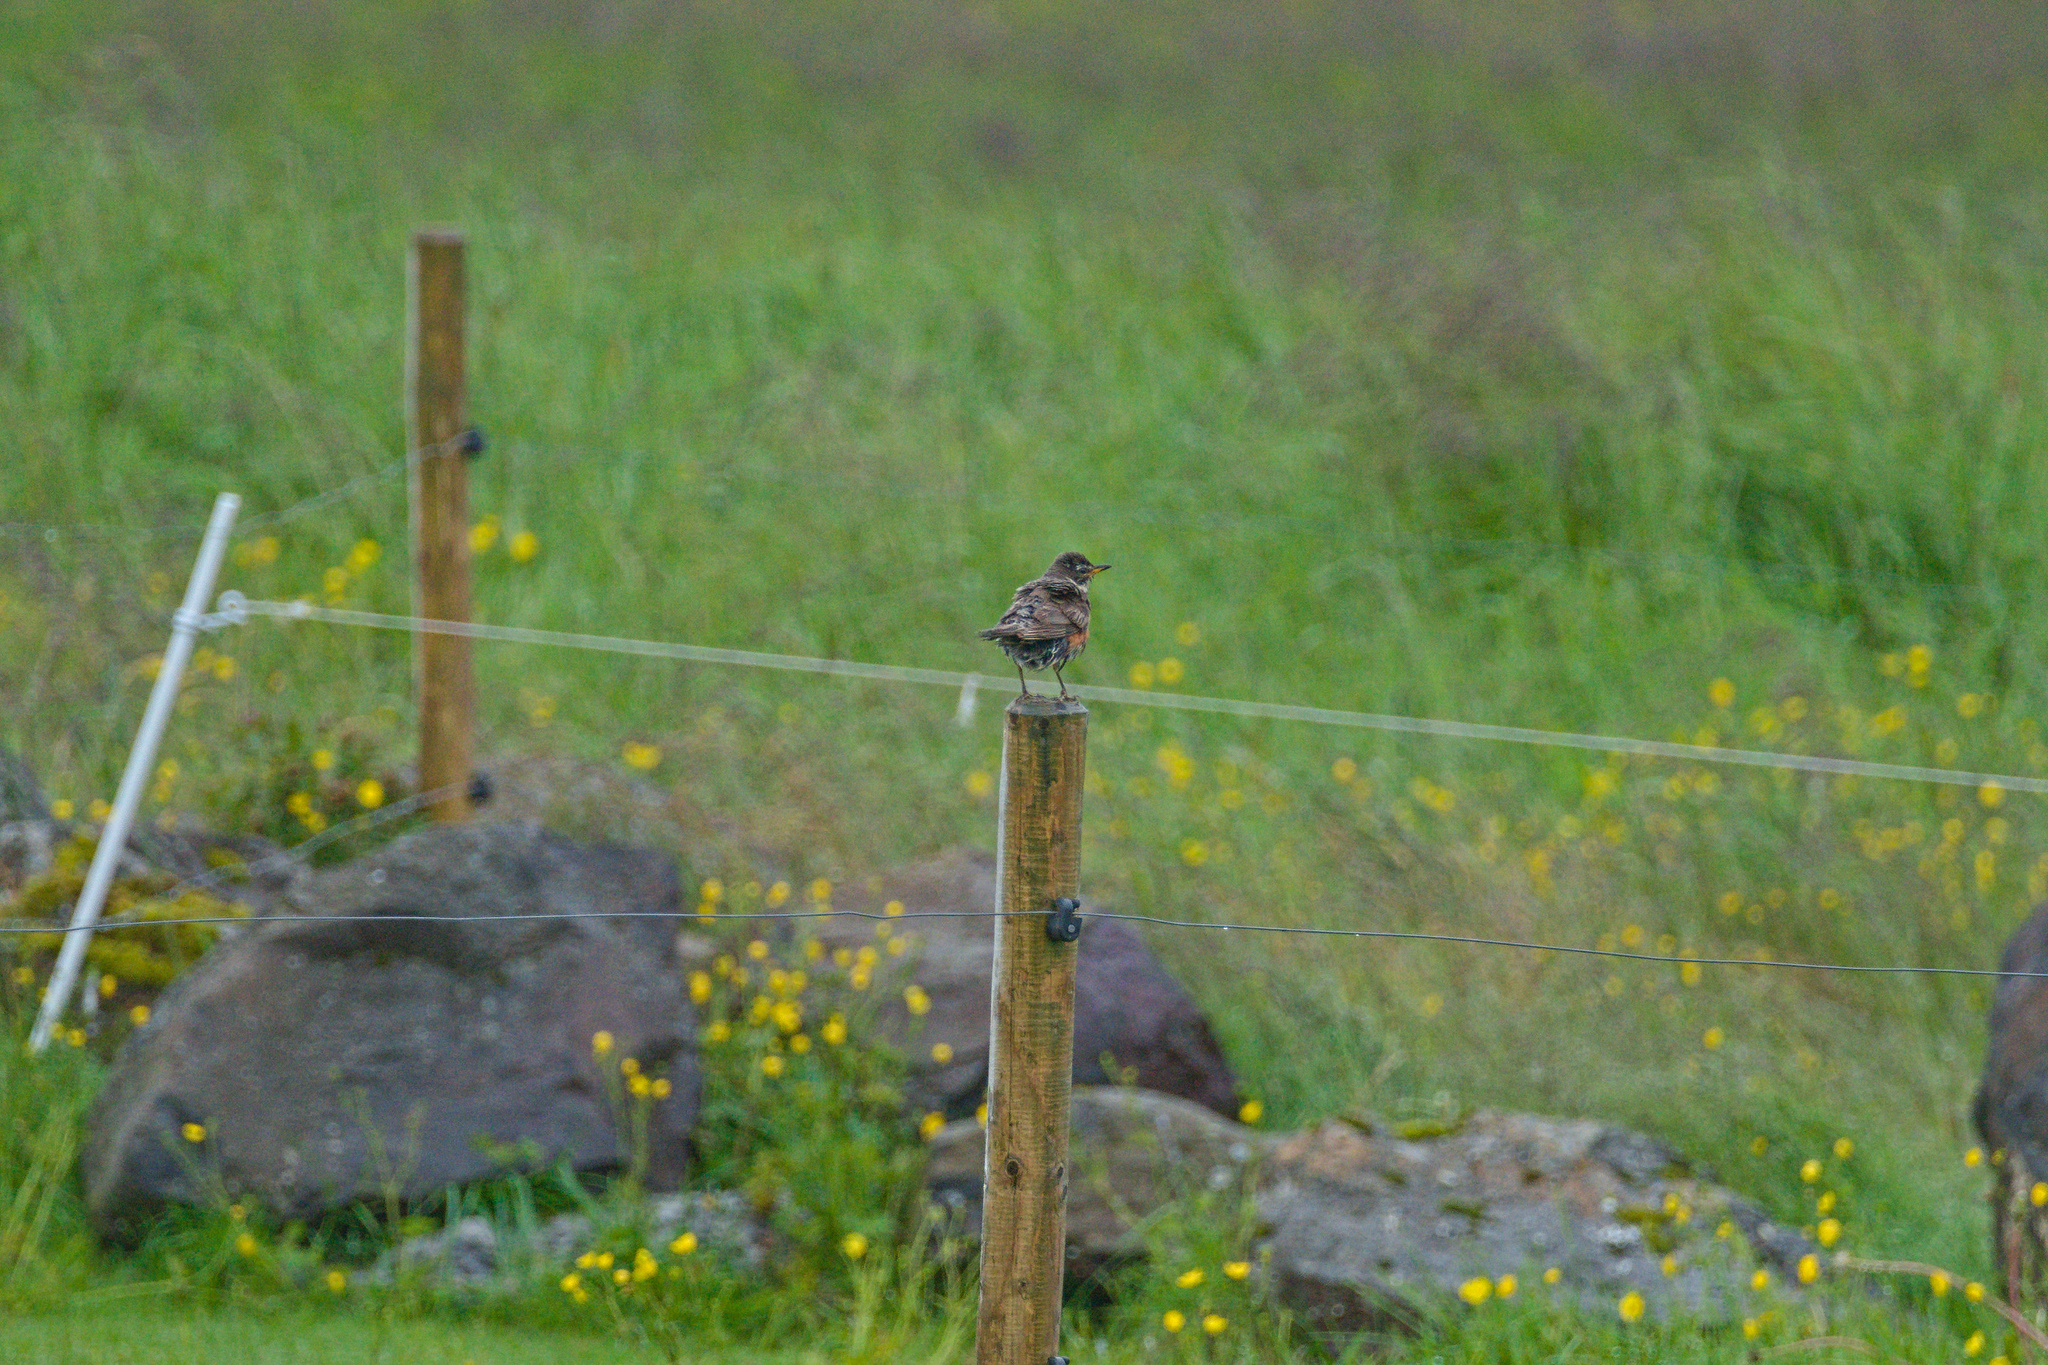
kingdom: Animalia
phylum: Chordata
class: Aves
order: Passeriformes
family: Turdidae
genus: Turdus
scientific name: Turdus iliacus
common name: Redwing
